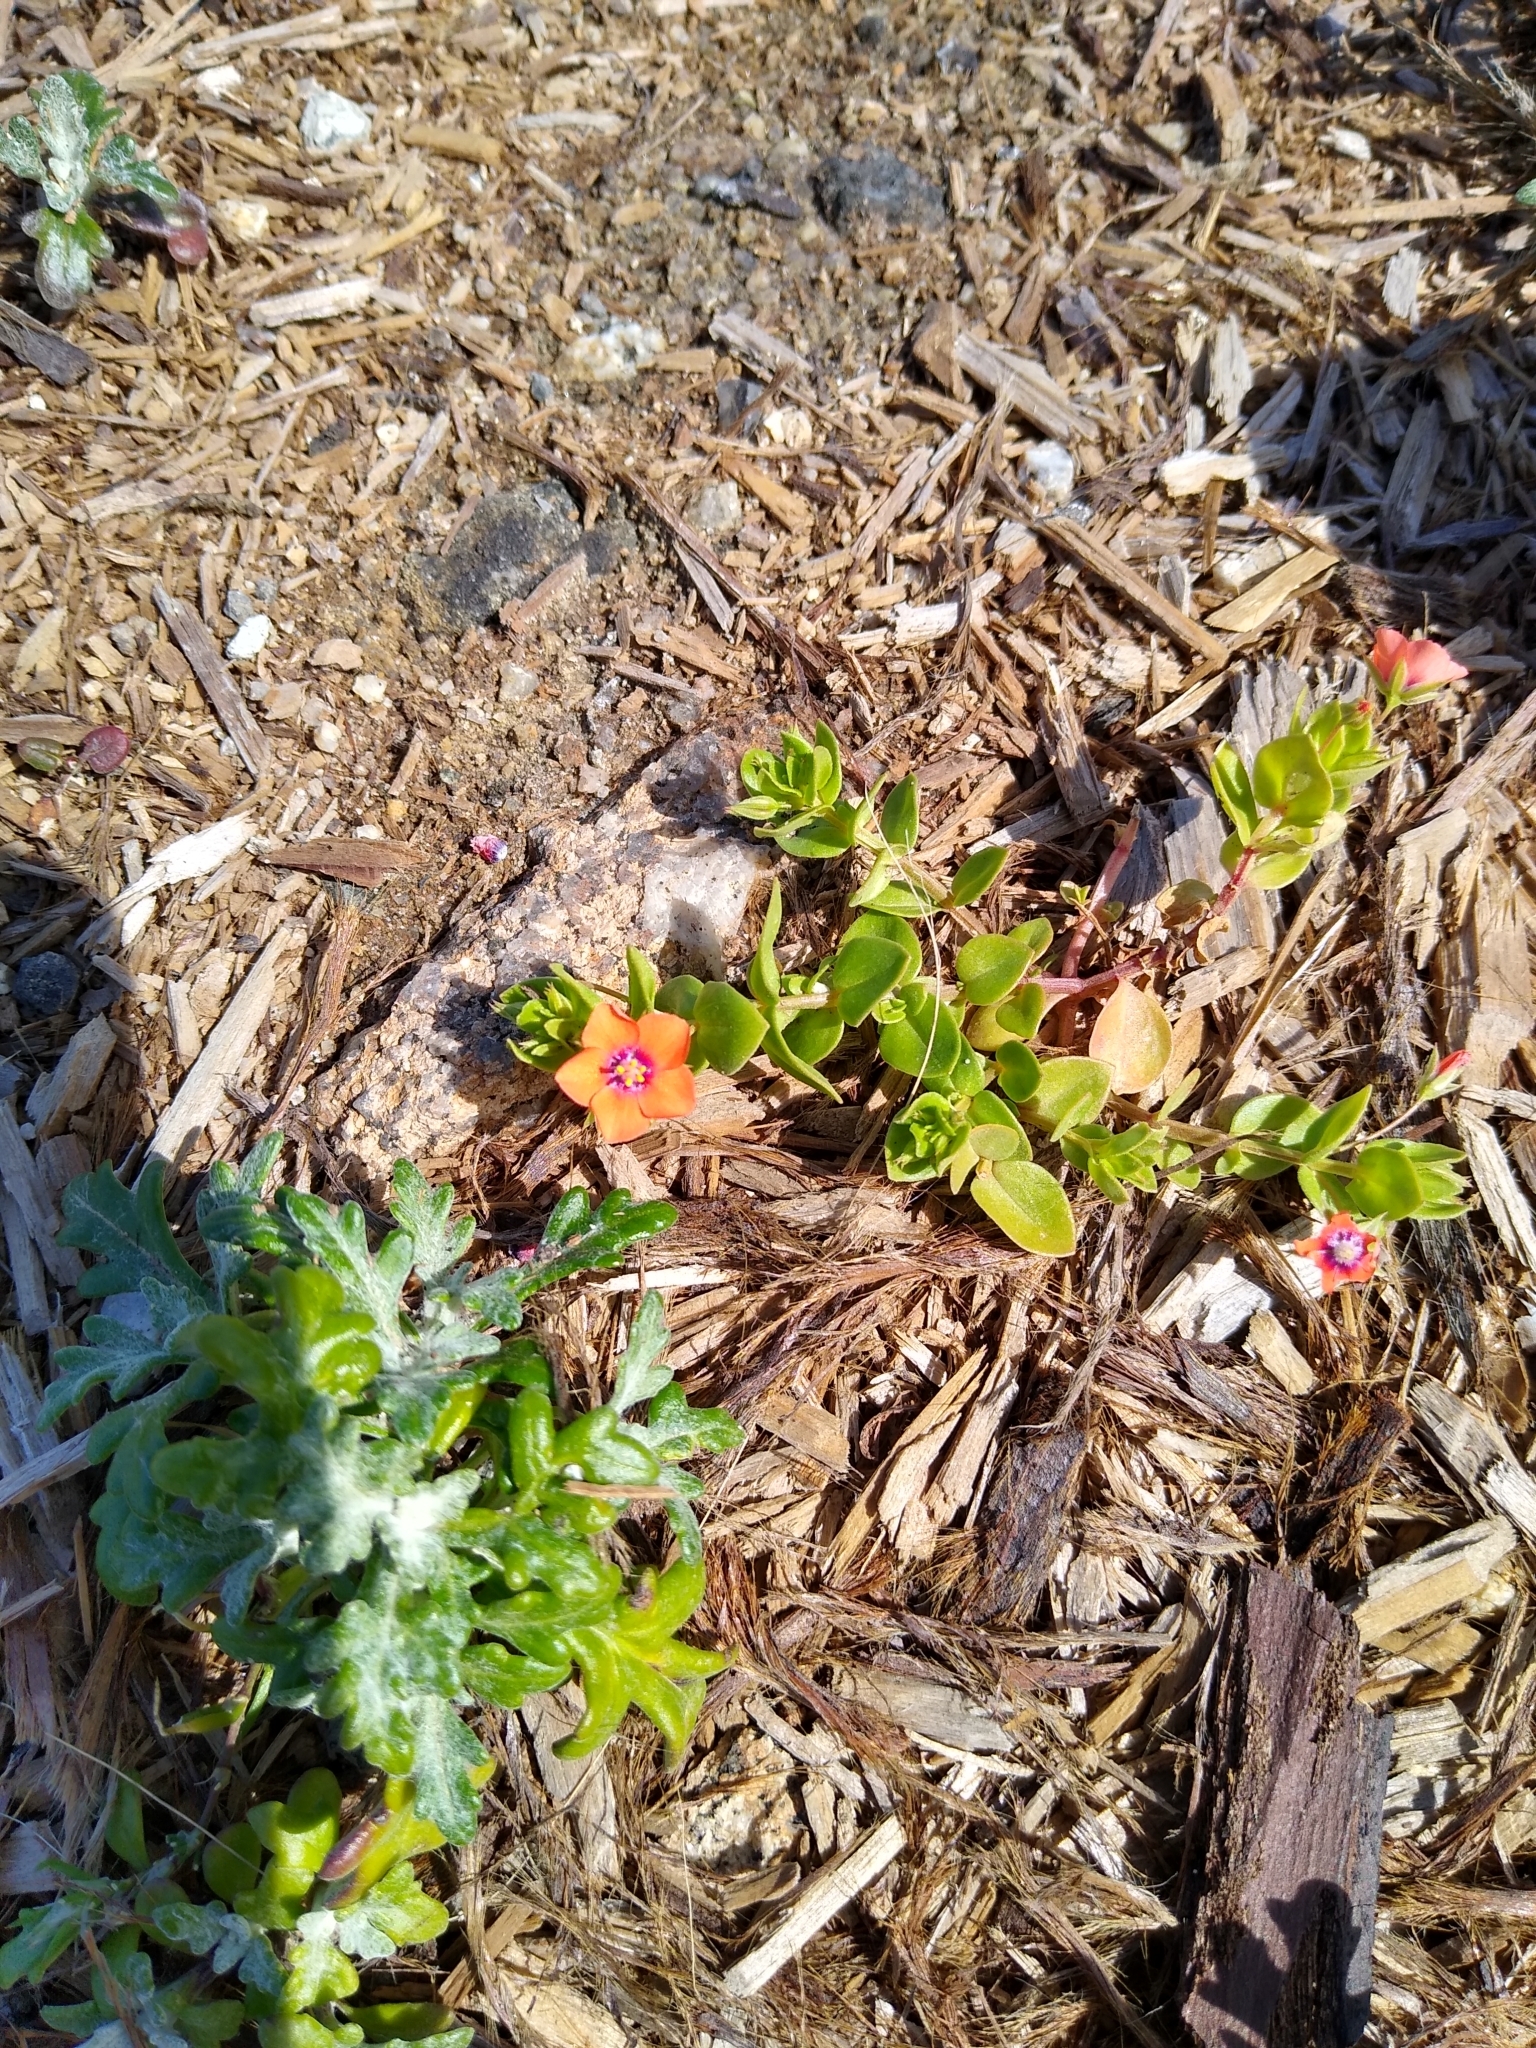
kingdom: Plantae
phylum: Tracheophyta
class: Magnoliopsida
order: Ericales
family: Primulaceae
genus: Lysimachia
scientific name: Lysimachia arvensis
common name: Scarlet pimpernel
